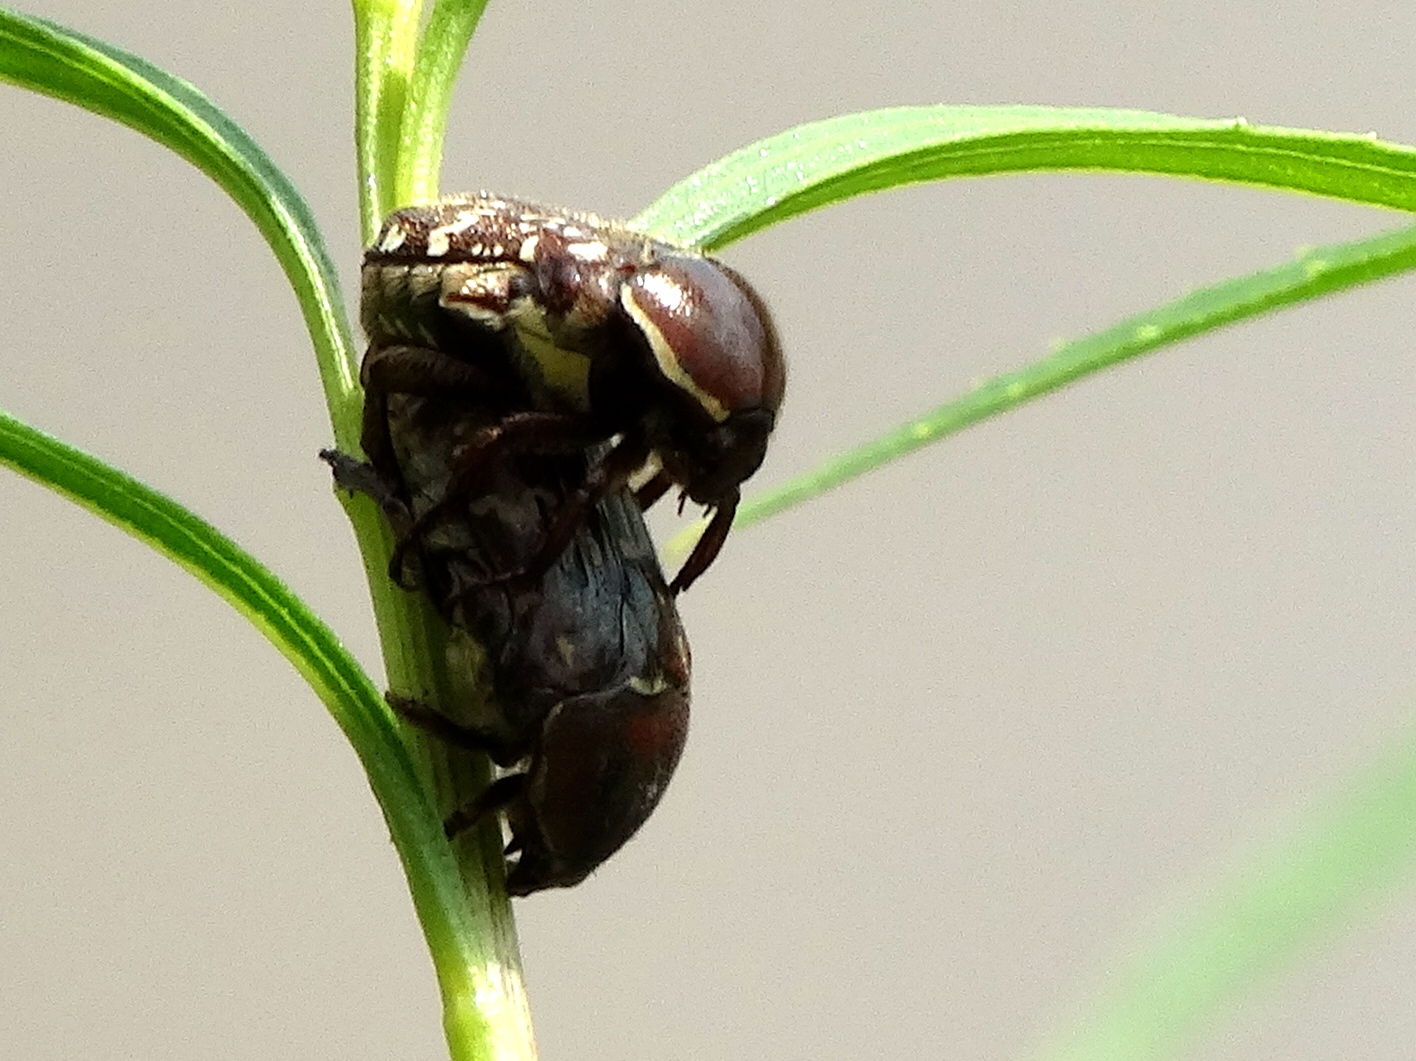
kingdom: Animalia
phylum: Arthropoda
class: Insecta
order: Coleoptera
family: Scarabaeidae
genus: Euphoria
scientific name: Euphoria leucographa
